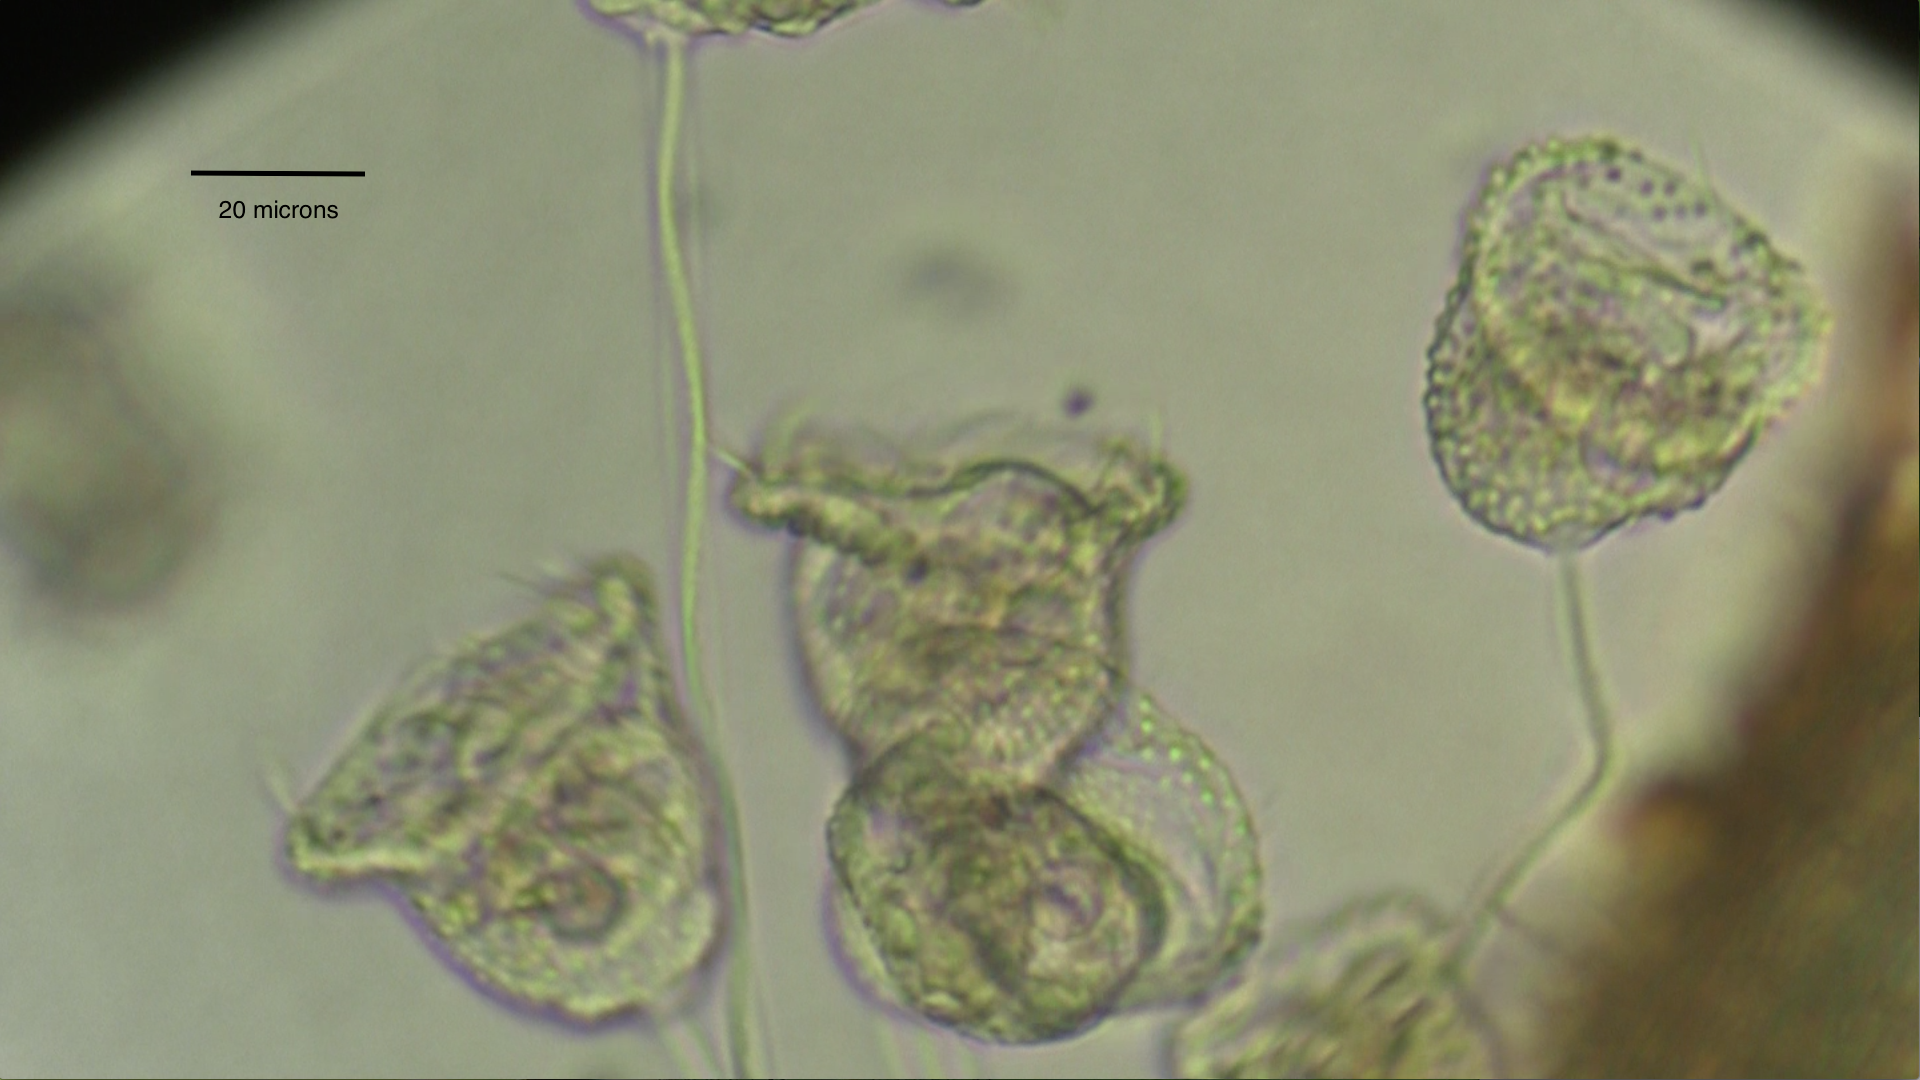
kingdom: Chromista
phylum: Ciliophora
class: Oligohymenophorea
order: Peritrichida
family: Vorticellidae
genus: Pseudovorticella
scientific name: Pseudovorticella monilata
